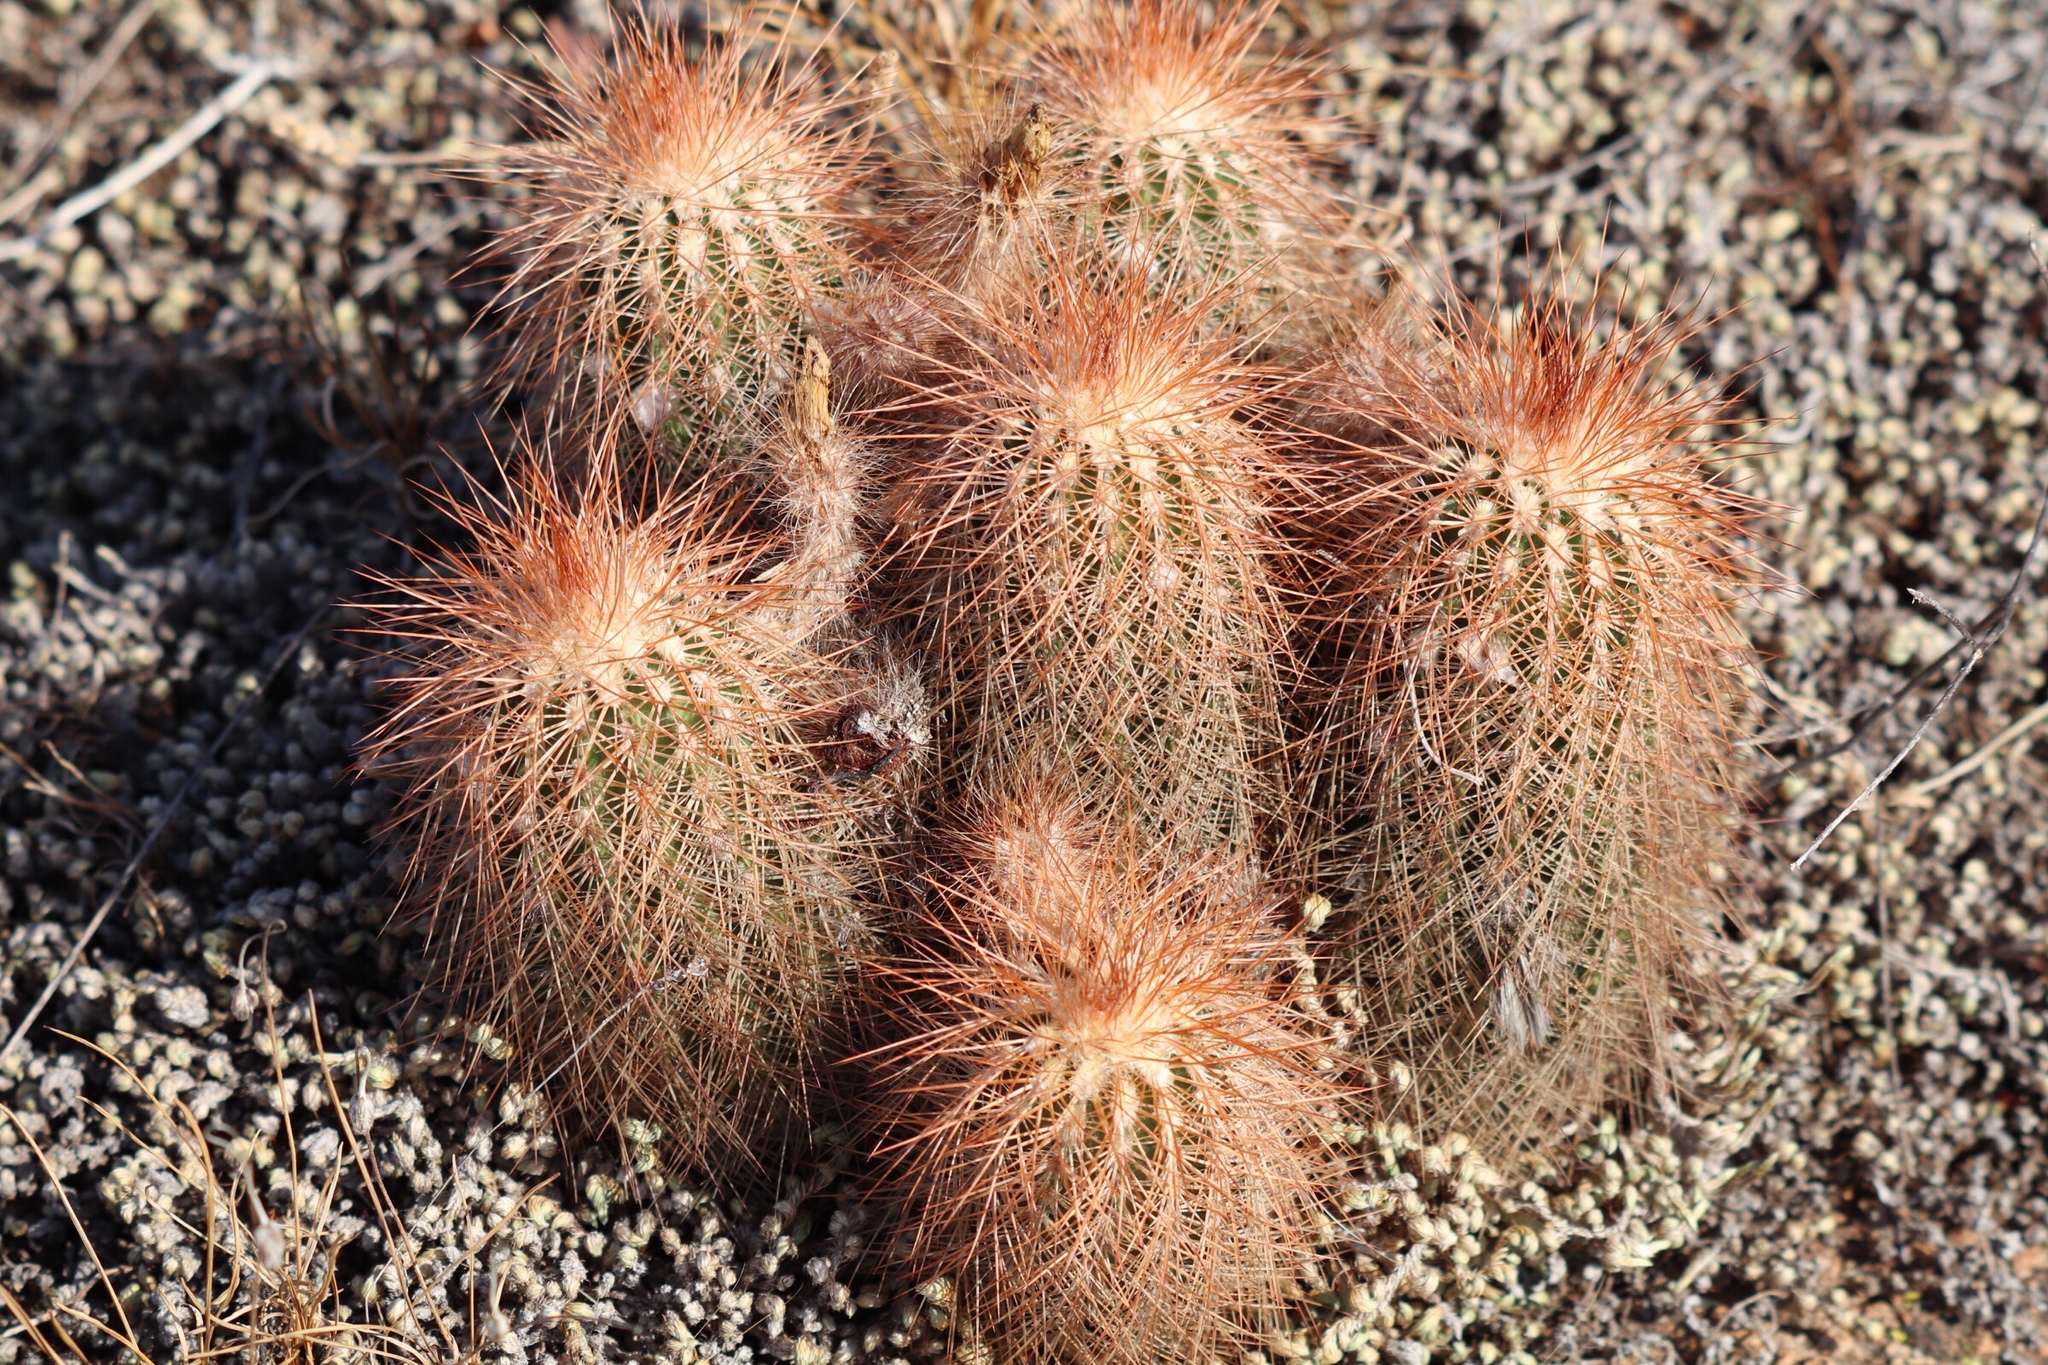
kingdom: Plantae
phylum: Tracheophyta
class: Magnoliopsida
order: Caryophyllales
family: Cactaceae
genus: Echinocereus
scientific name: Echinocereus reichenbachii
